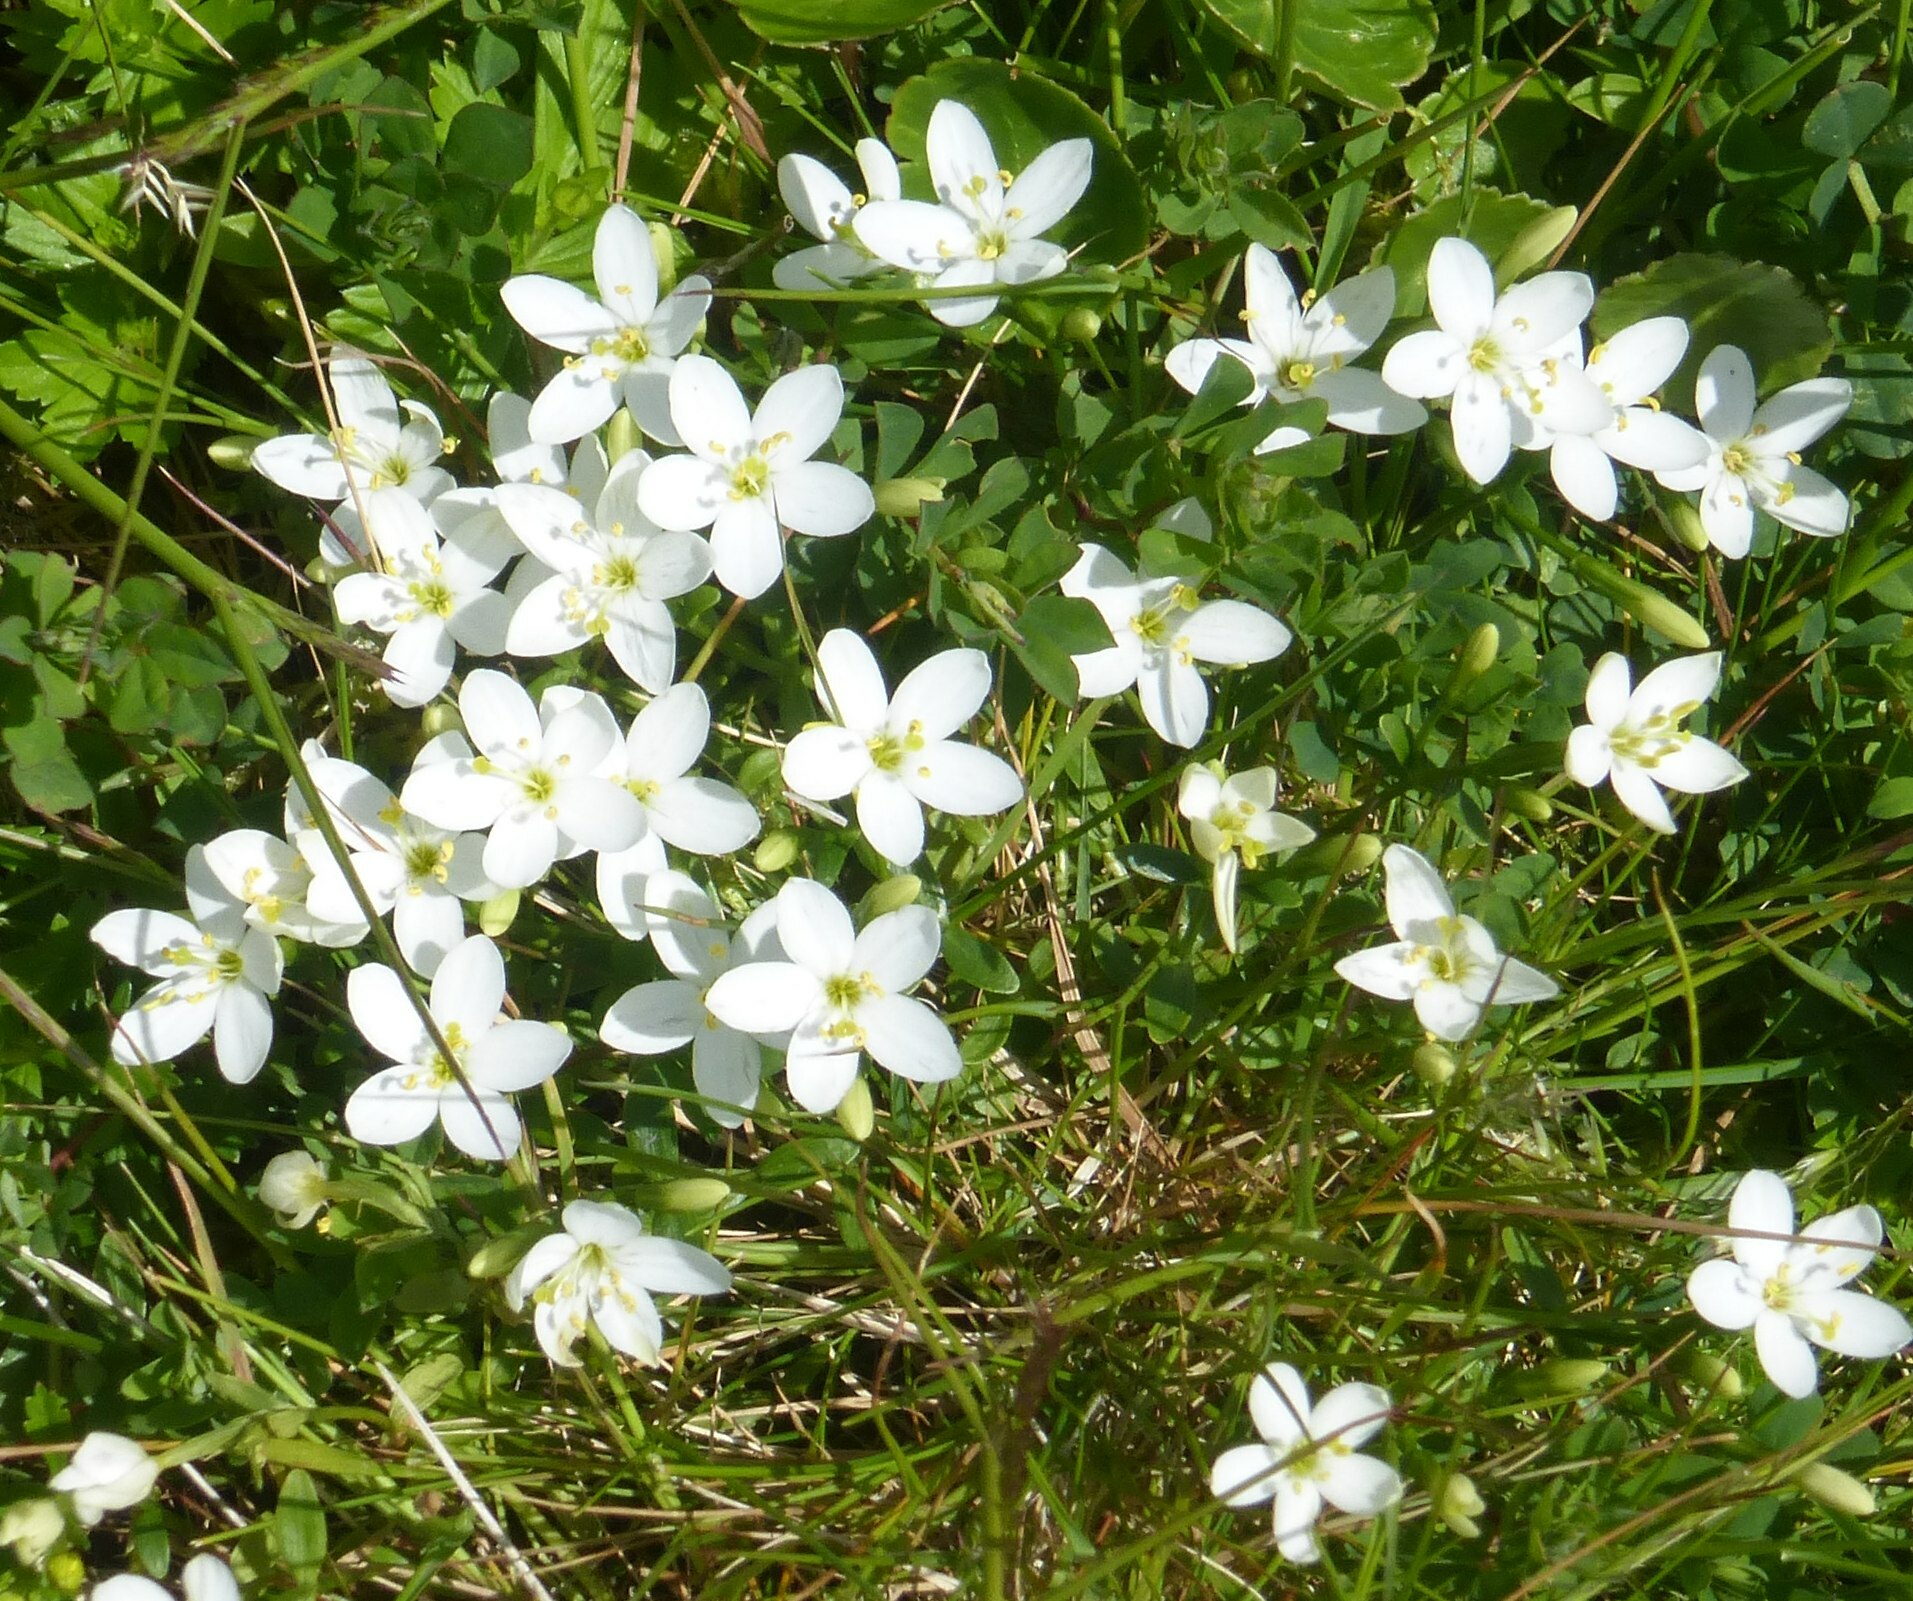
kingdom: Plantae
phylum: Tracheophyta
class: Magnoliopsida
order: Gentianales
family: Gentianaceae
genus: Centaurium
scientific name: Centaurium scilloides
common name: Perennial centaury
